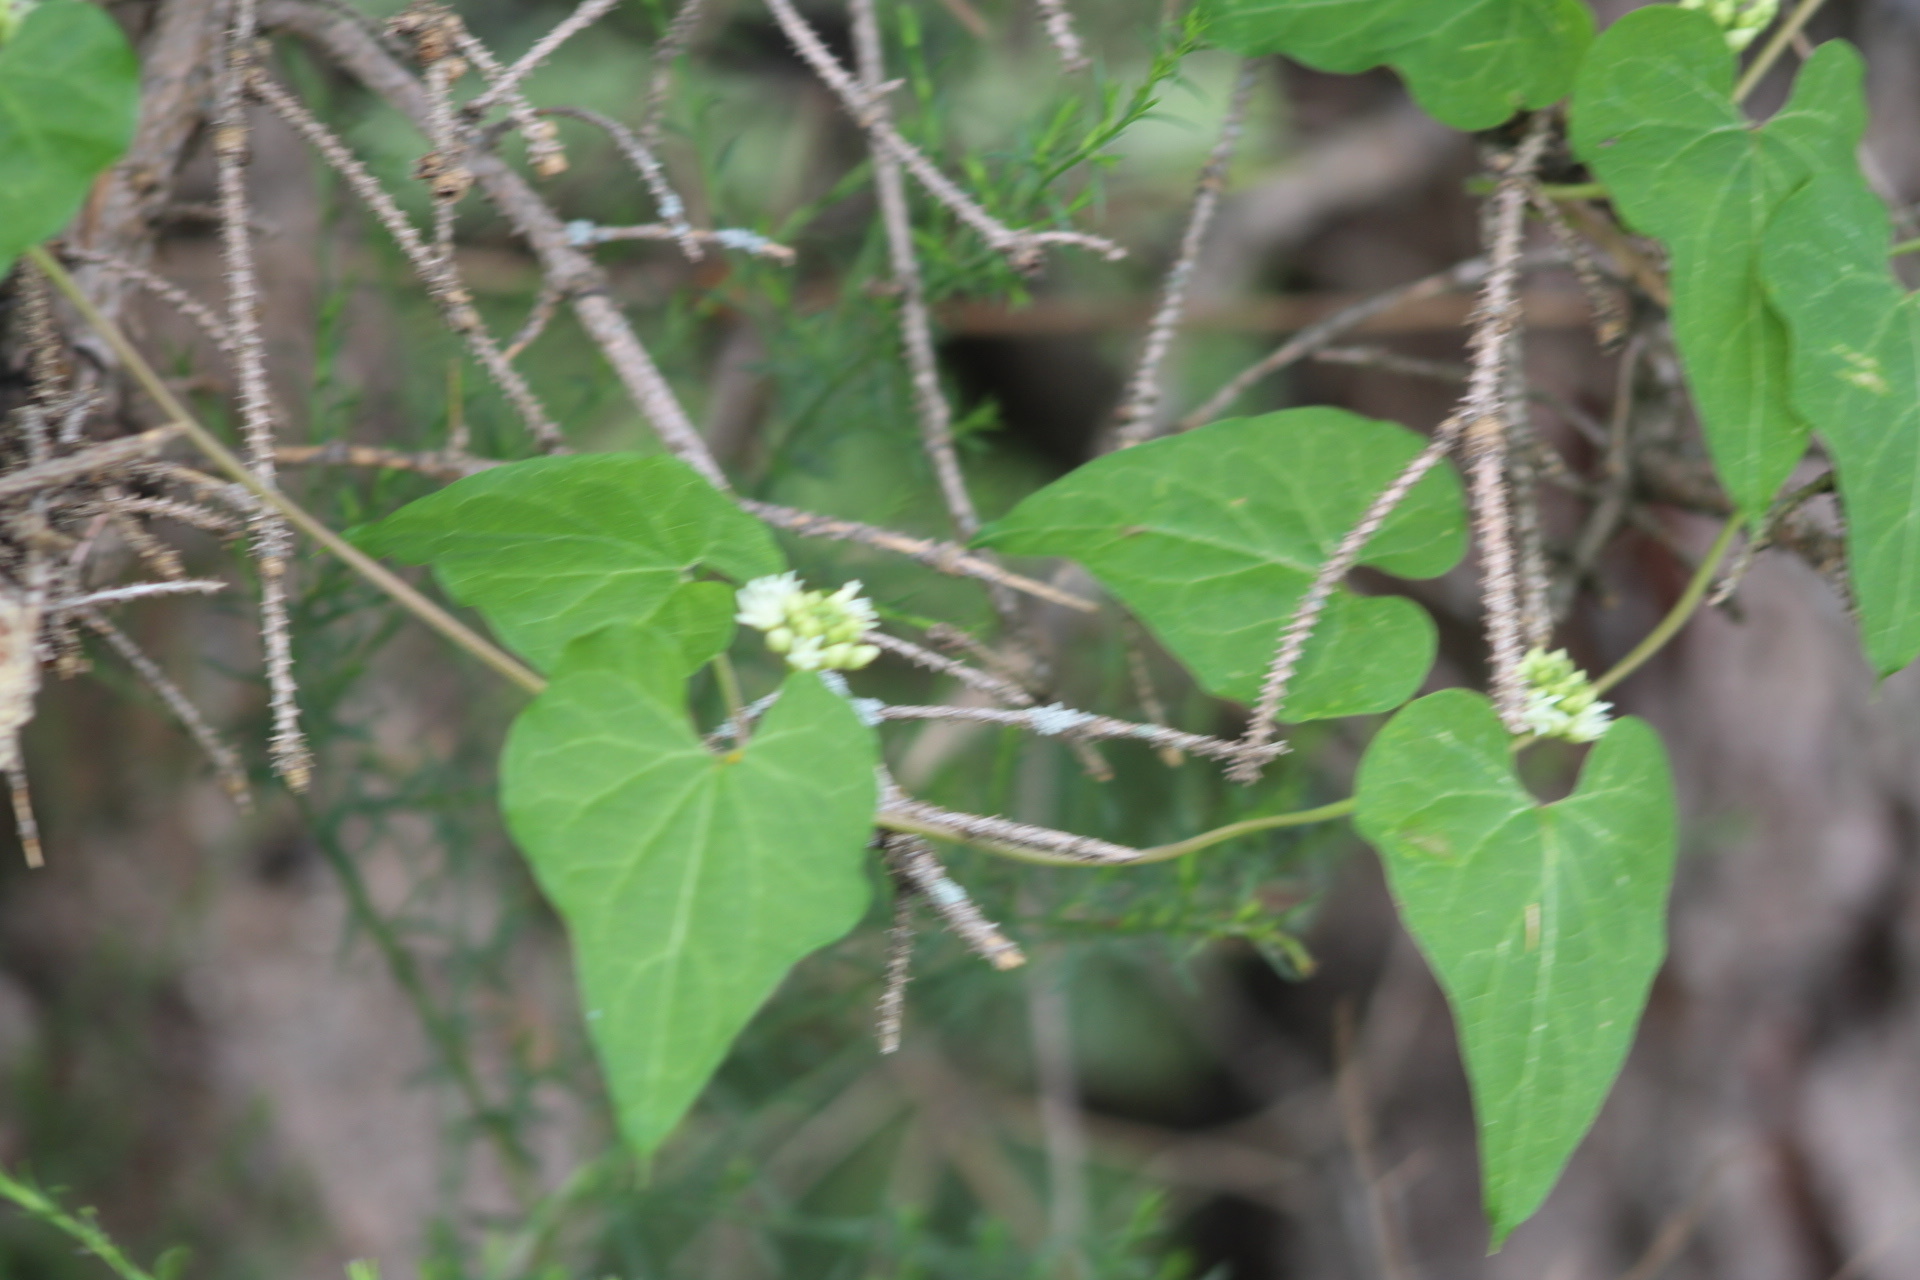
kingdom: Plantae
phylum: Tracheophyta
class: Magnoliopsida
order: Gentianales
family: Apocynaceae
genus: Cynanchum
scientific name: Cynanchum laeve
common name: Sandvine
